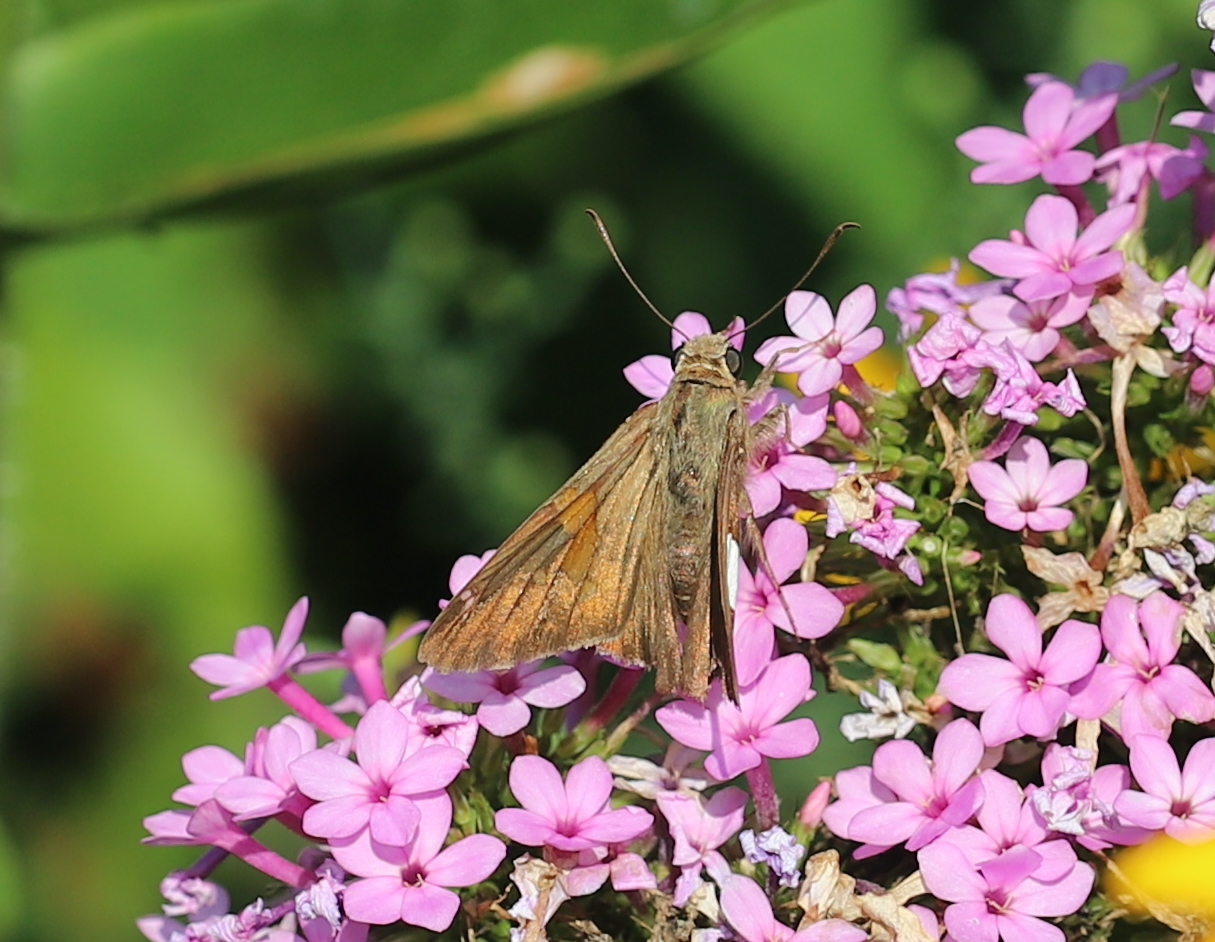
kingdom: Animalia
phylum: Arthropoda
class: Insecta
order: Lepidoptera
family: Hesperiidae
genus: Epargyreus
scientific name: Epargyreus clarus
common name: Silver-spotted skipper
